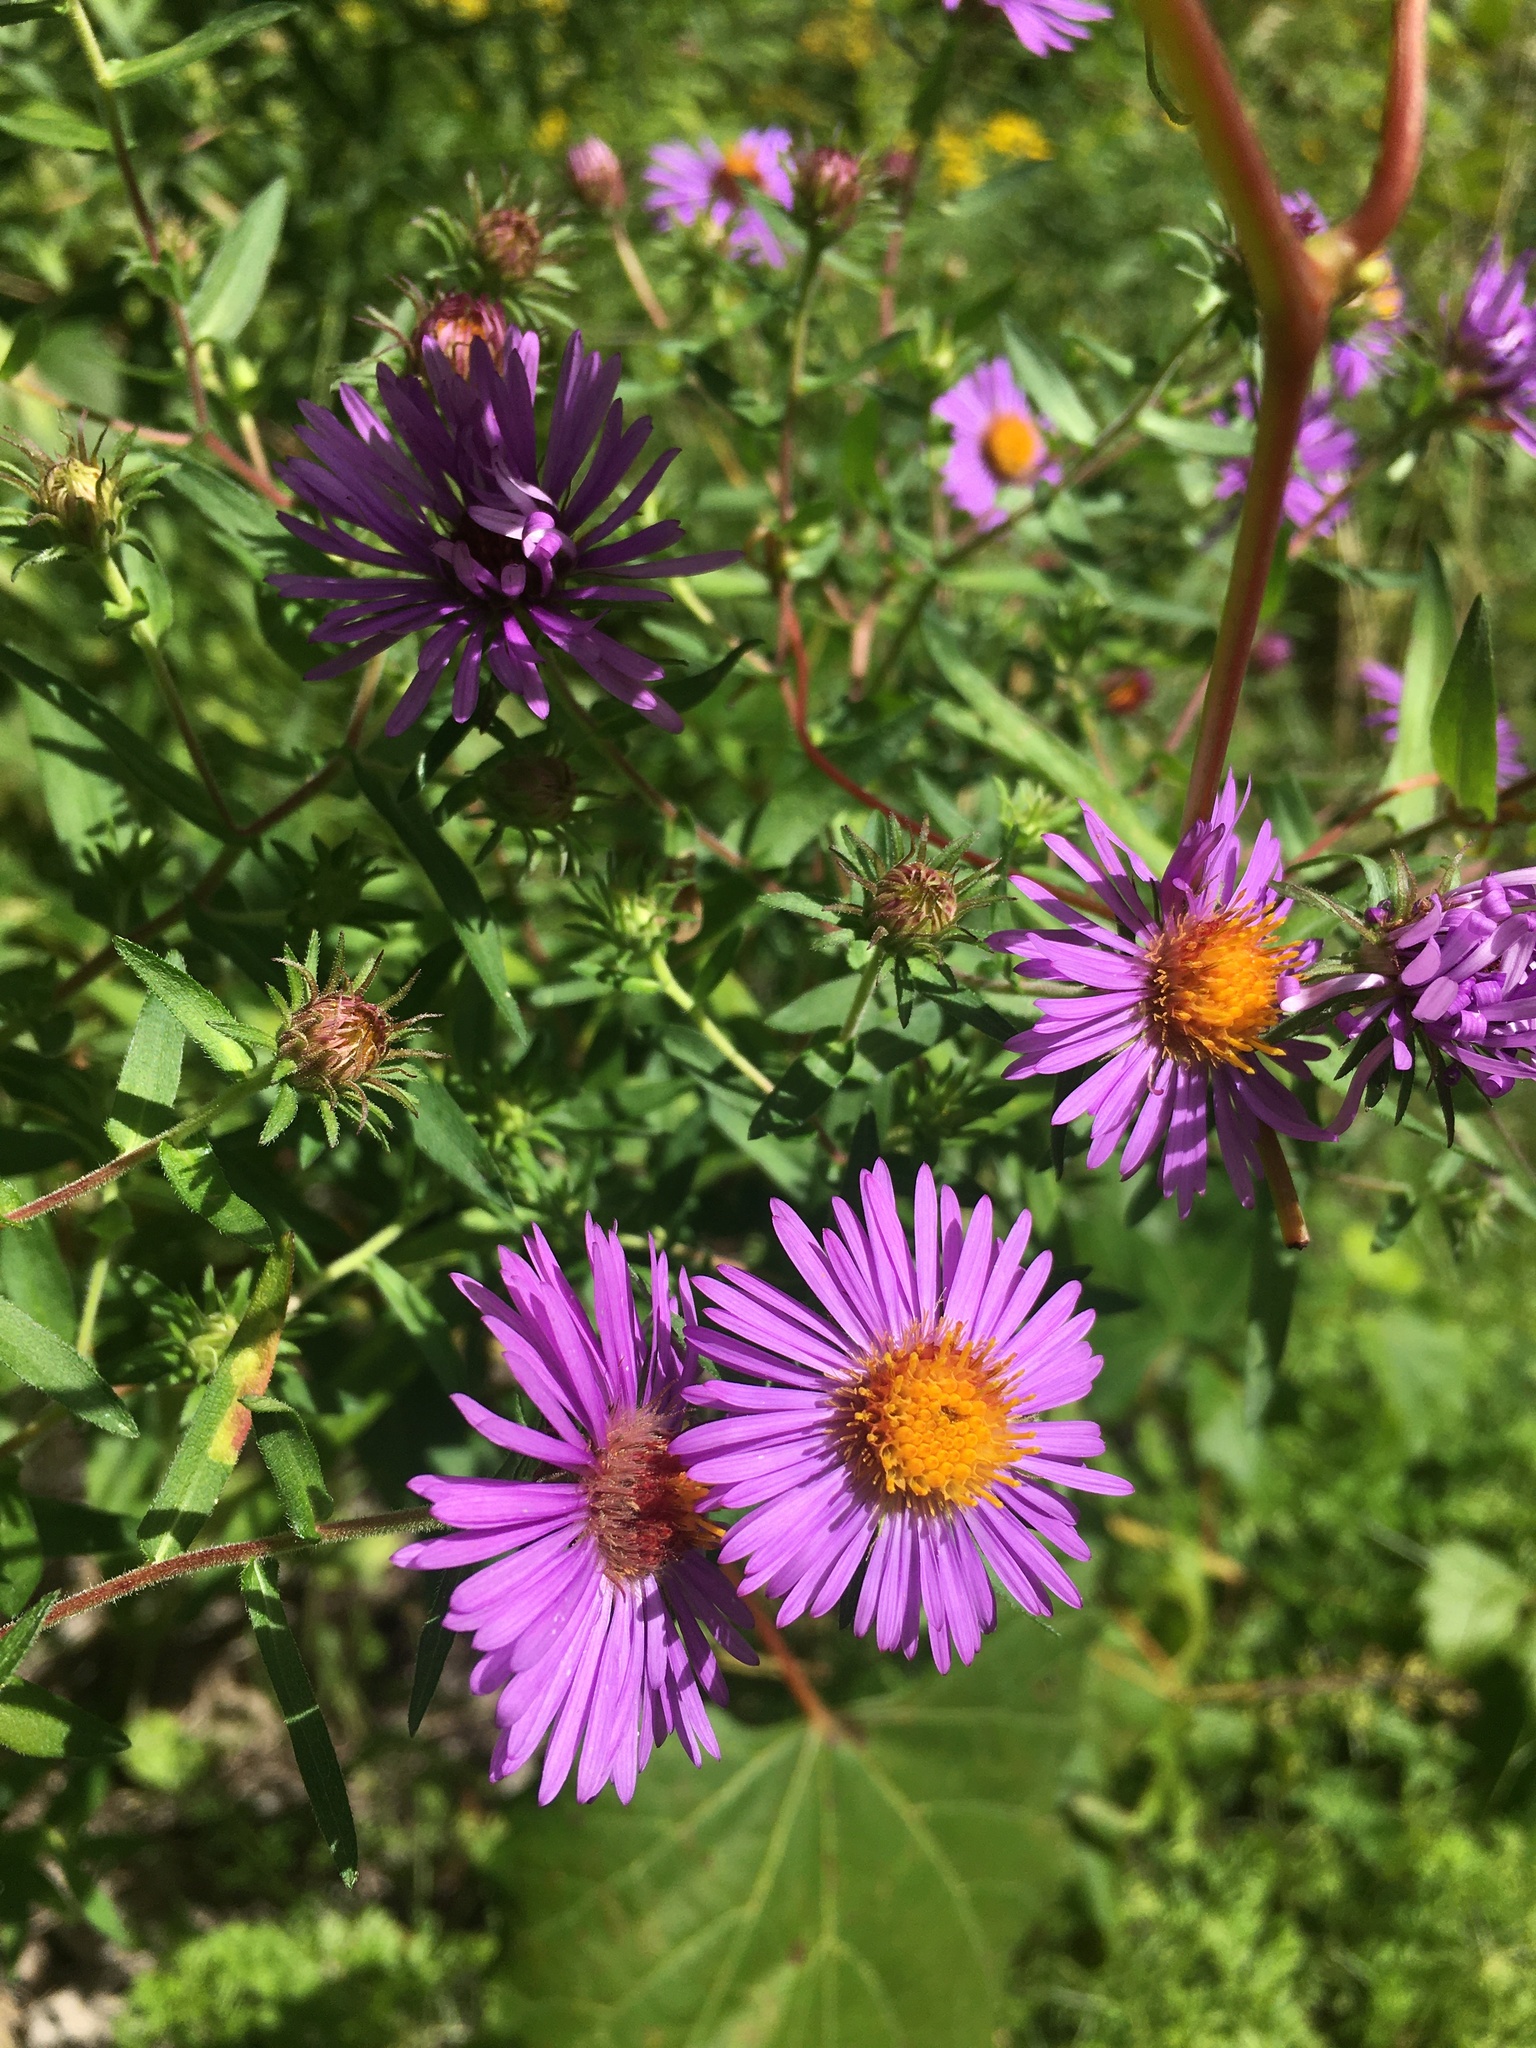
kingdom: Plantae
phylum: Tracheophyta
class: Magnoliopsida
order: Asterales
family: Asteraceae
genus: Symphyotrichum
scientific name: Symphyotrichum novae-angliae
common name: Michaelmas daisy
